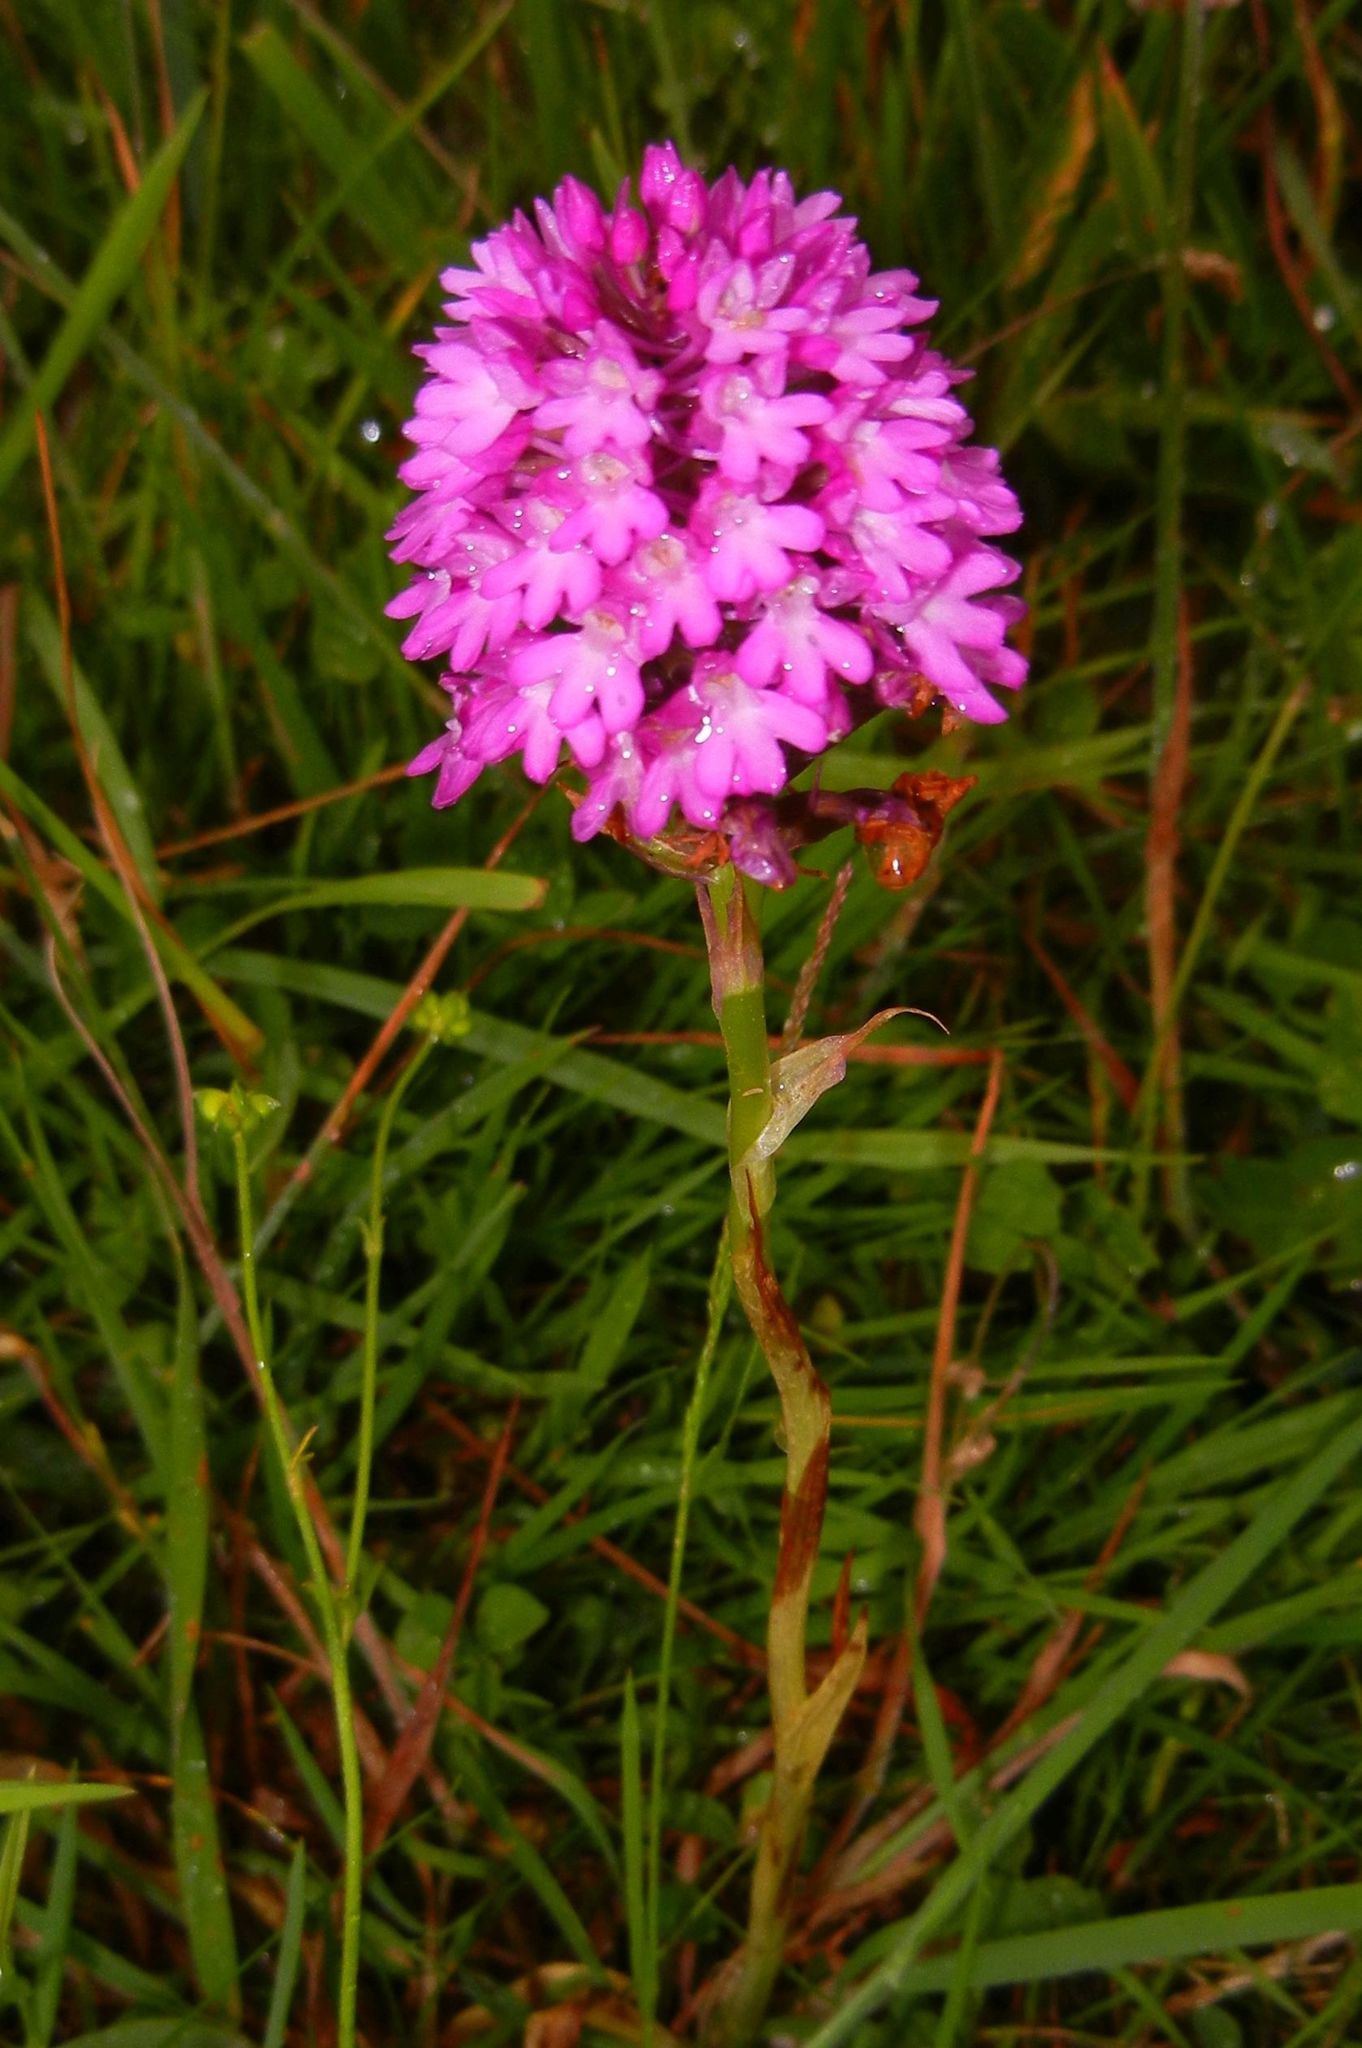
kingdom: Plantae
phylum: Tracheophyta
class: Liliopsida
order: Asparagales
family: Orchidaceae
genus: Anacamptis
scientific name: Anacamptis pyramidalis
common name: Pyramidal orchid
